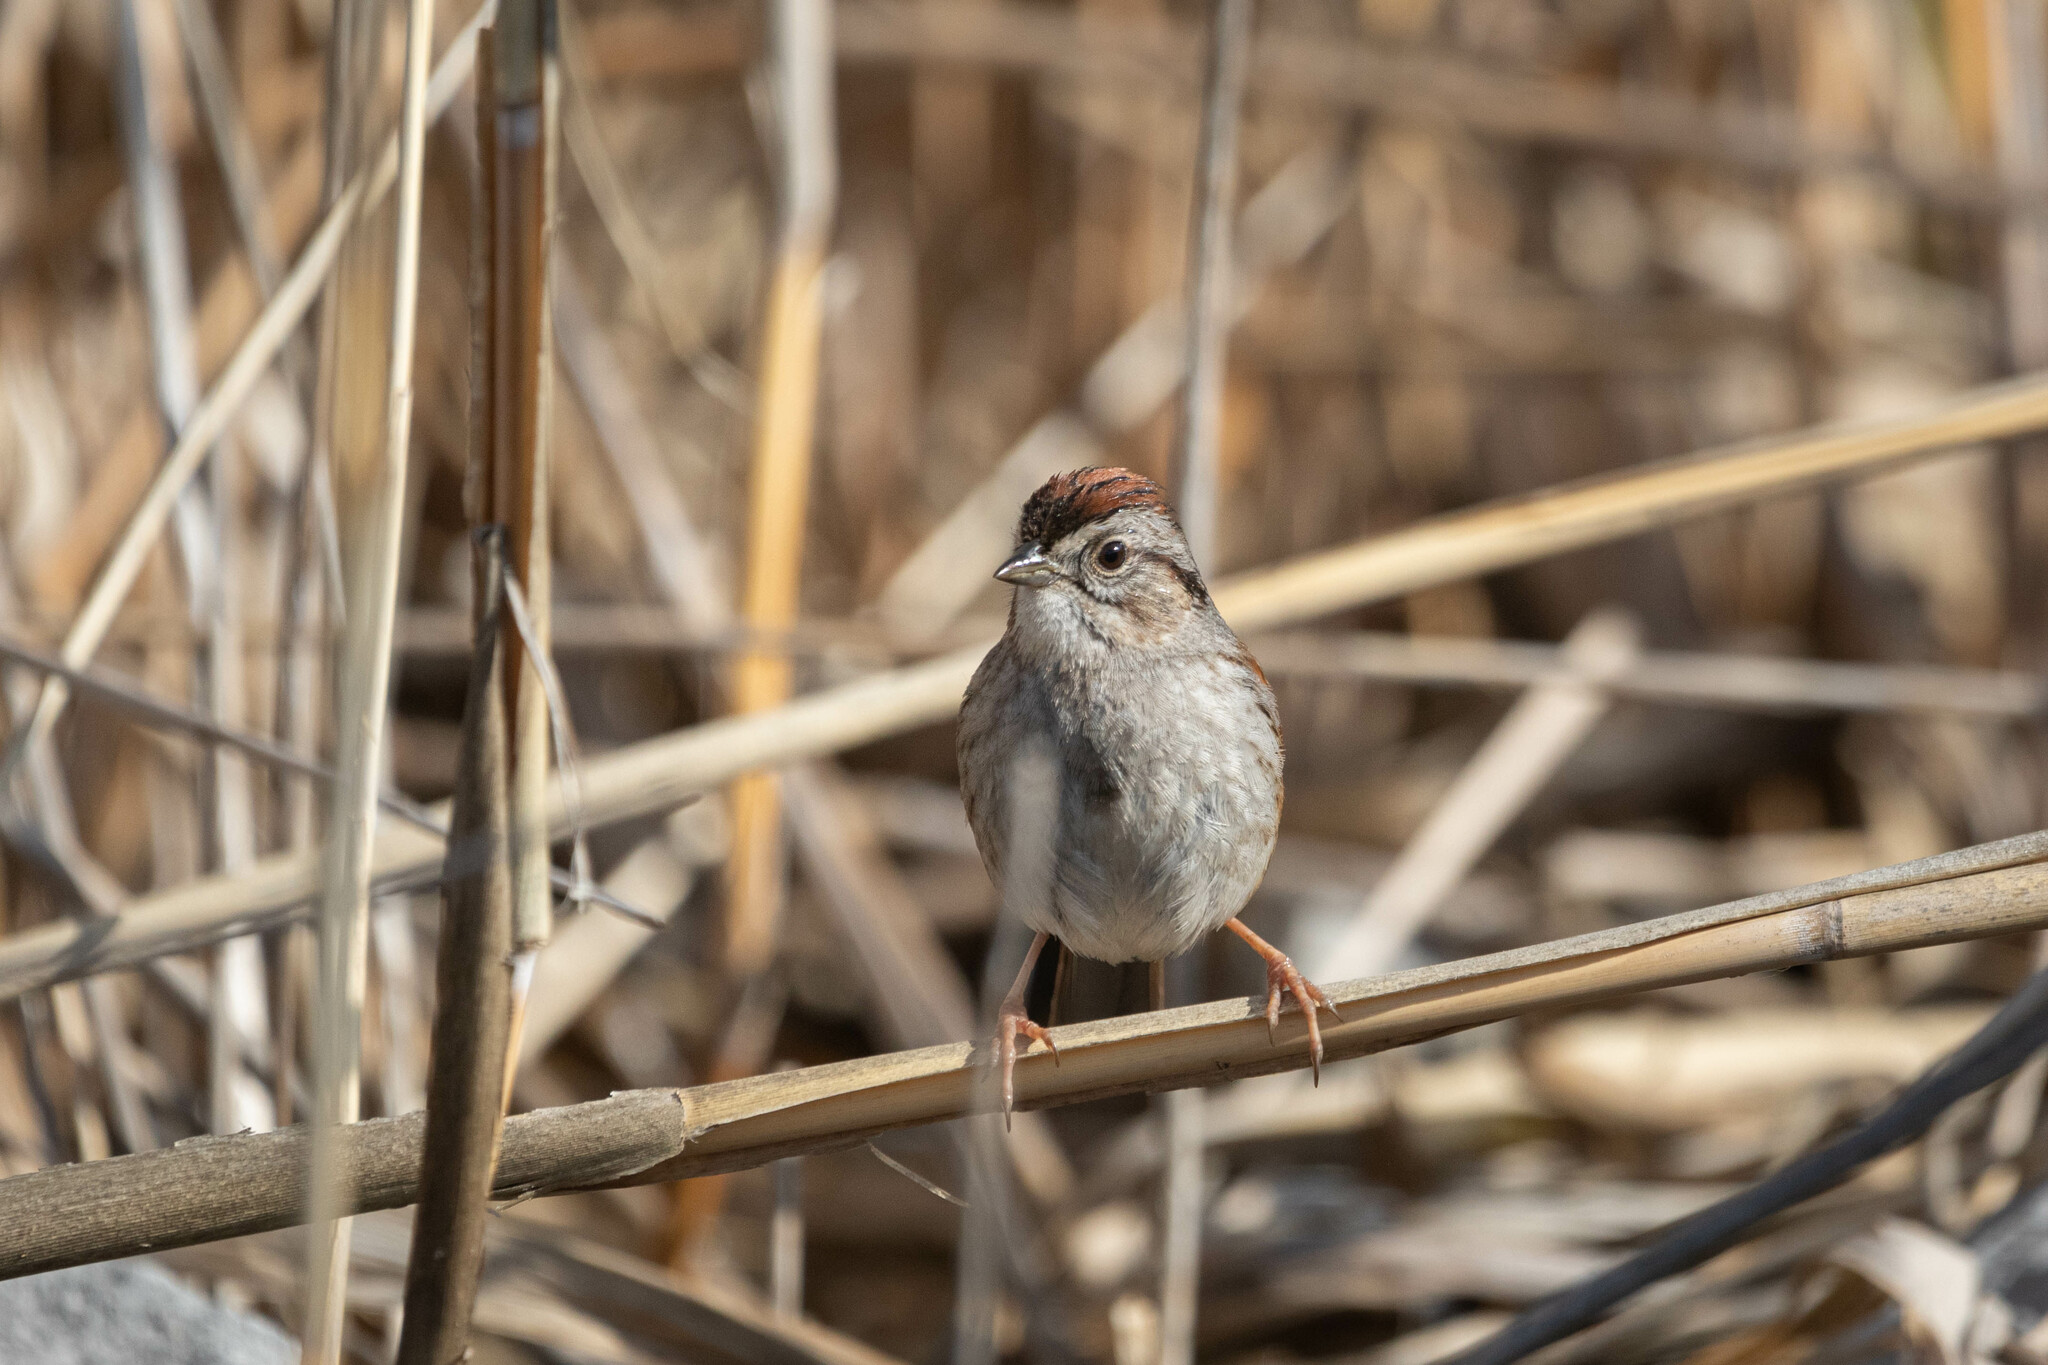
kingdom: Animalia
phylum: Chordata
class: Aves
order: Passeriformes
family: Passerellidae
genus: Melospiza
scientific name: Melospiza georgiana
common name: Swamp sparrow
